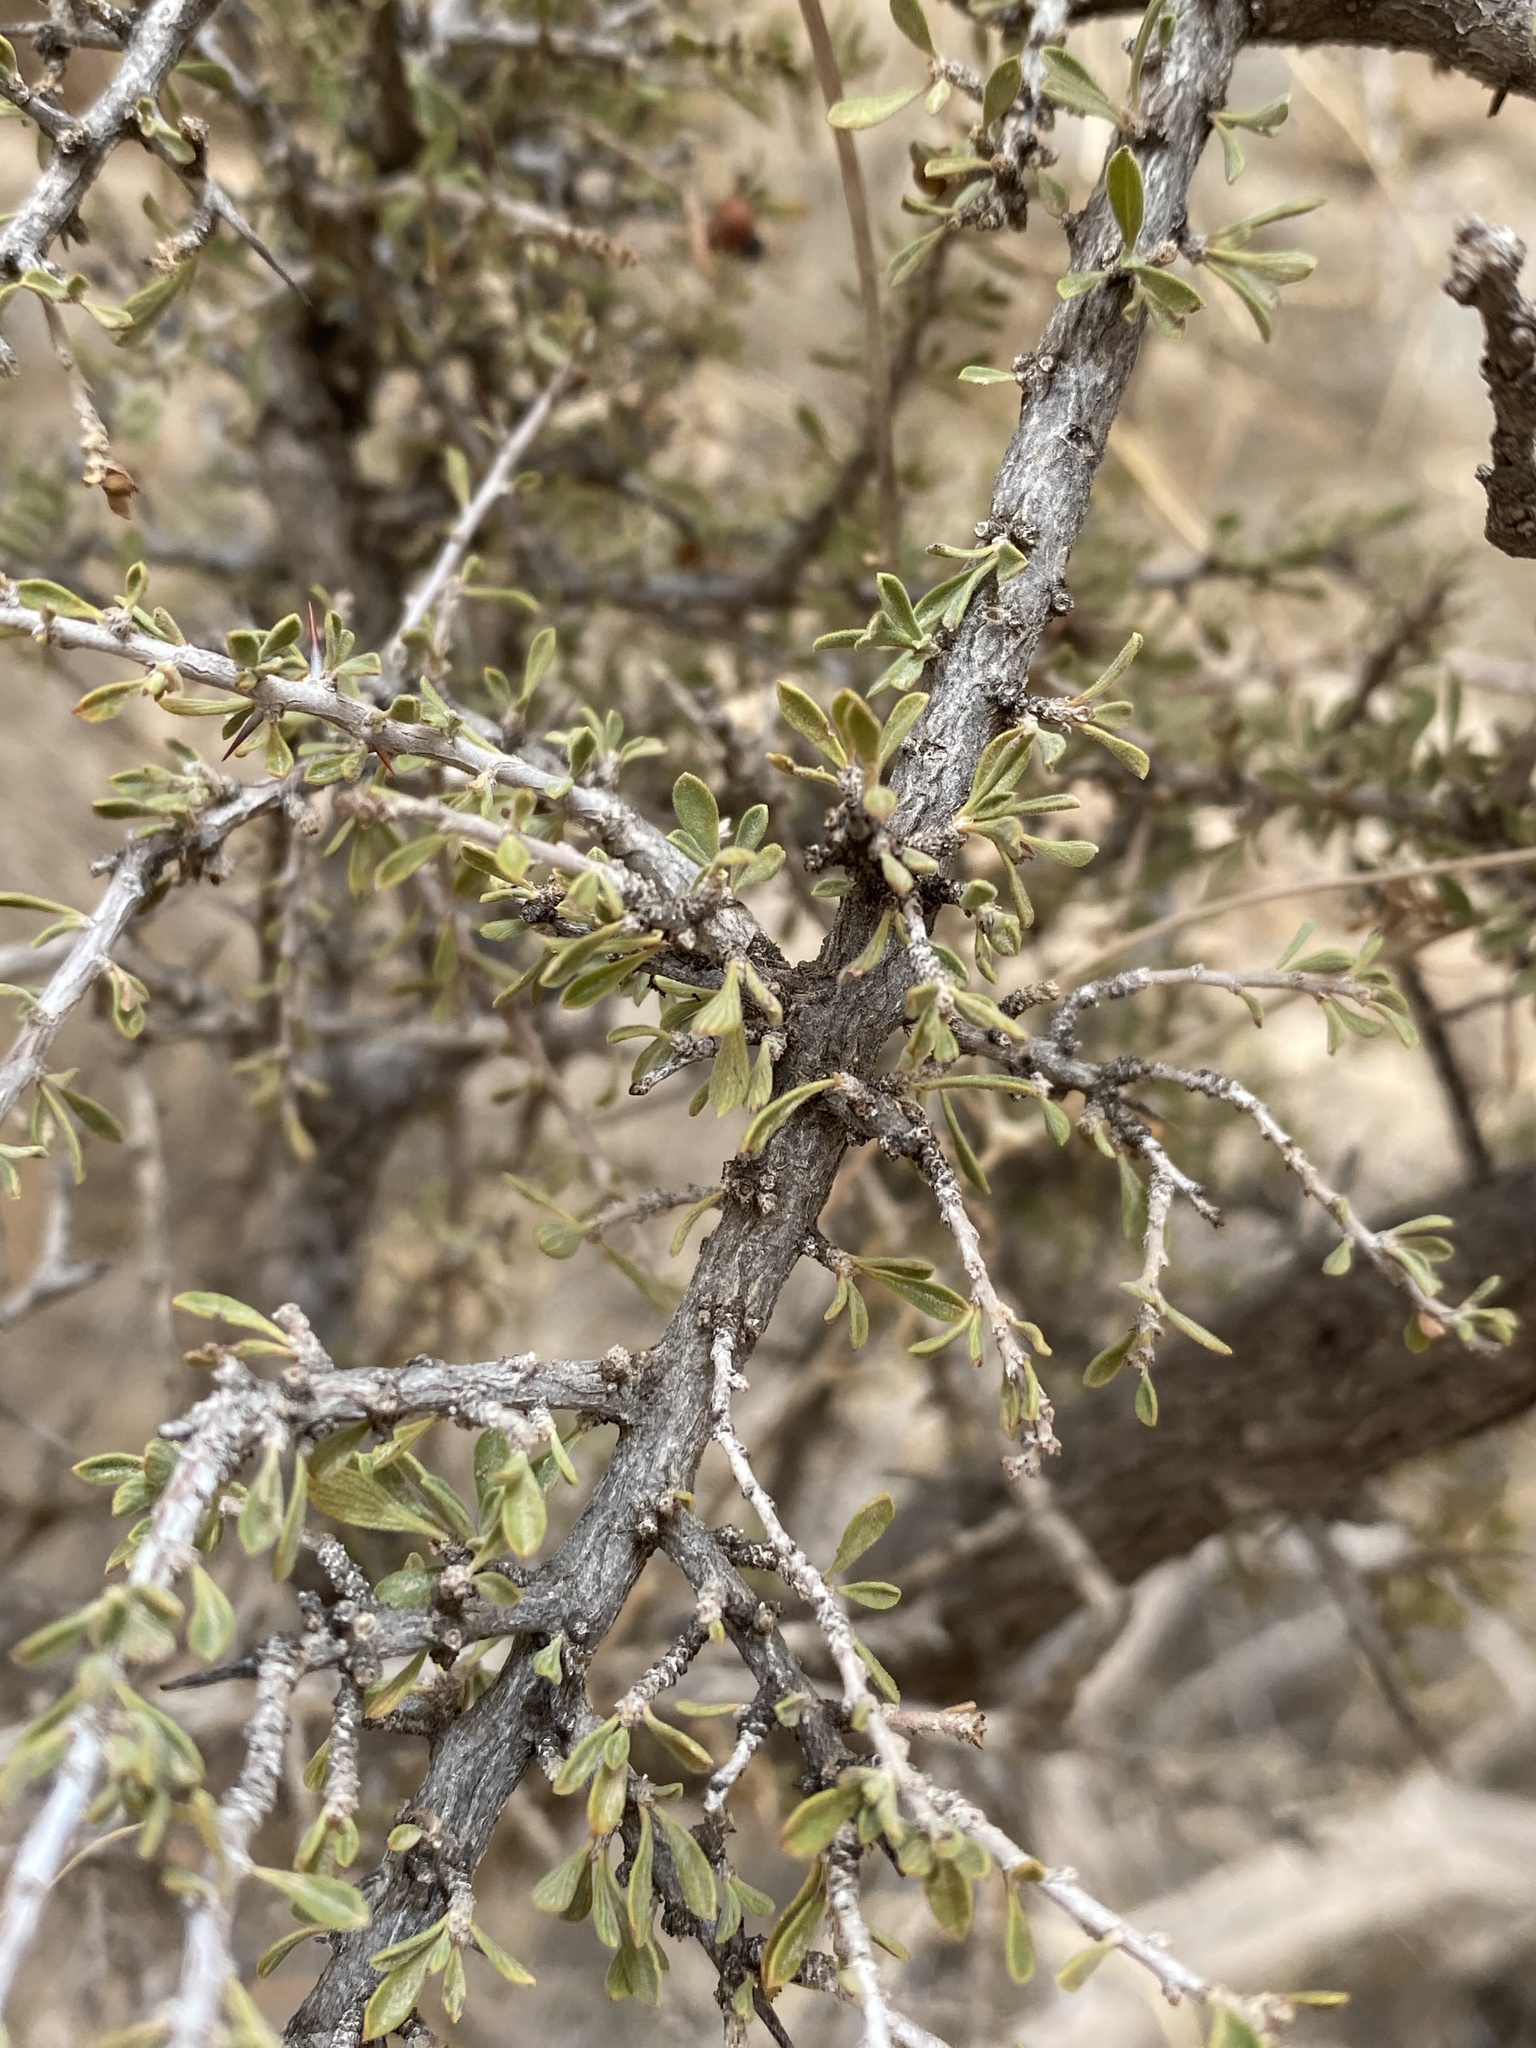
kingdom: Plantae
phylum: Tracheophyta
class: Magnoliopsida
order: Rosales
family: Rhamnaceae
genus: Condalia
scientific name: Condalia warnockii
